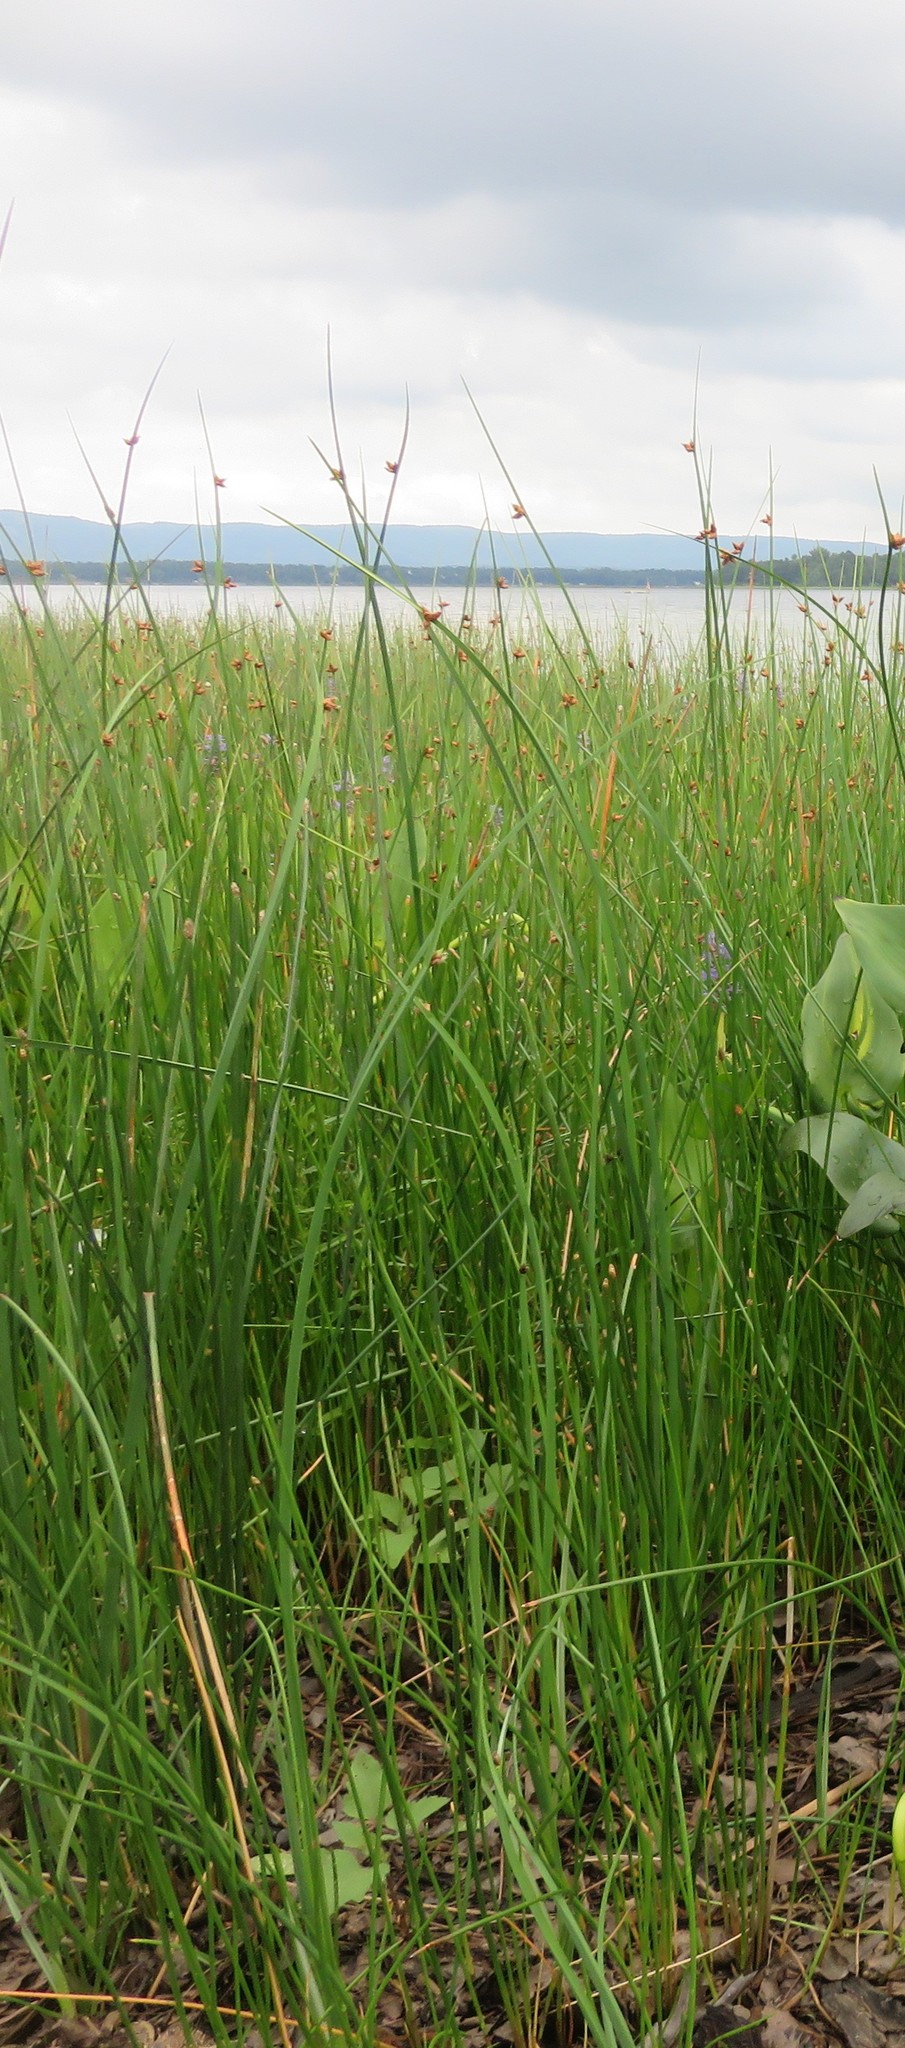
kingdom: Plantae
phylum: Tracheophyta
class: Liliopsida
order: Poales
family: Cyperaceae
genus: Schoenoplectus
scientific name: Schoenoplectus pungens
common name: Sharp club-rush
